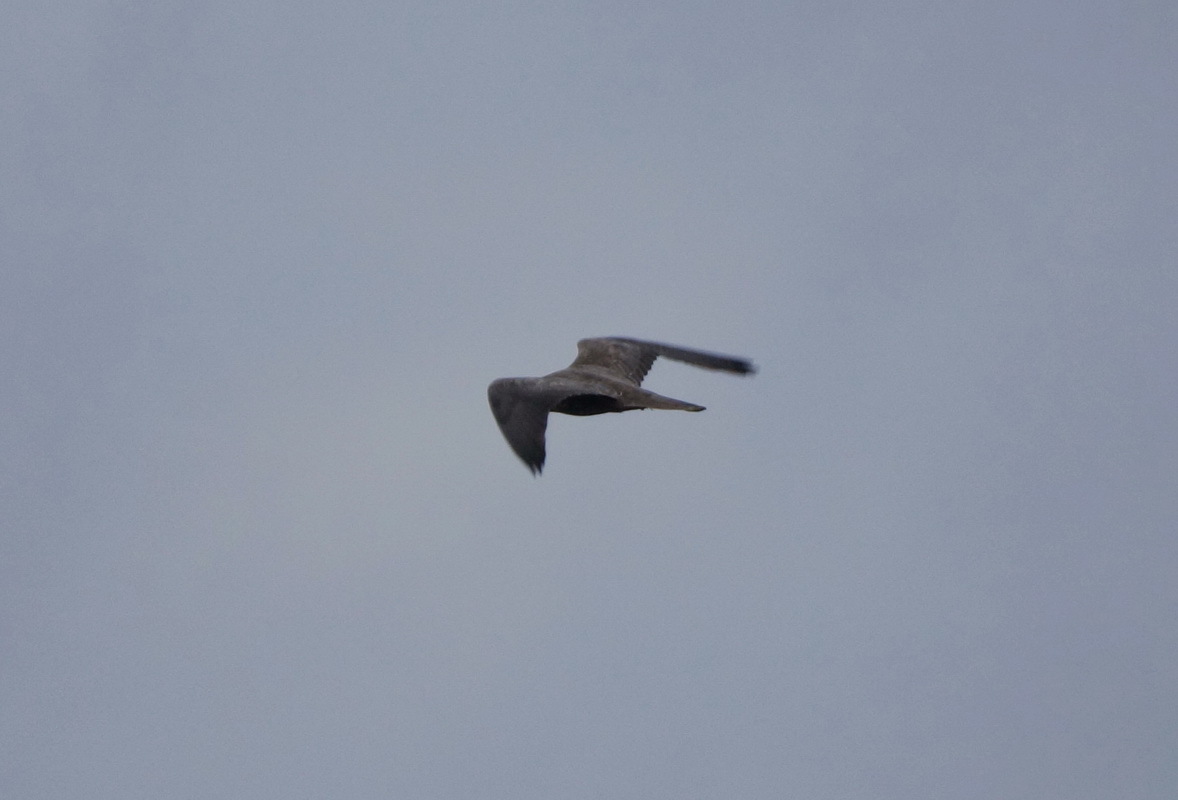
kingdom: Animalia
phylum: Chordata
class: Aves
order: Falconiformes
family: Falconidae
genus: Falco
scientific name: Falco cherrug
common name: Saker falcon
